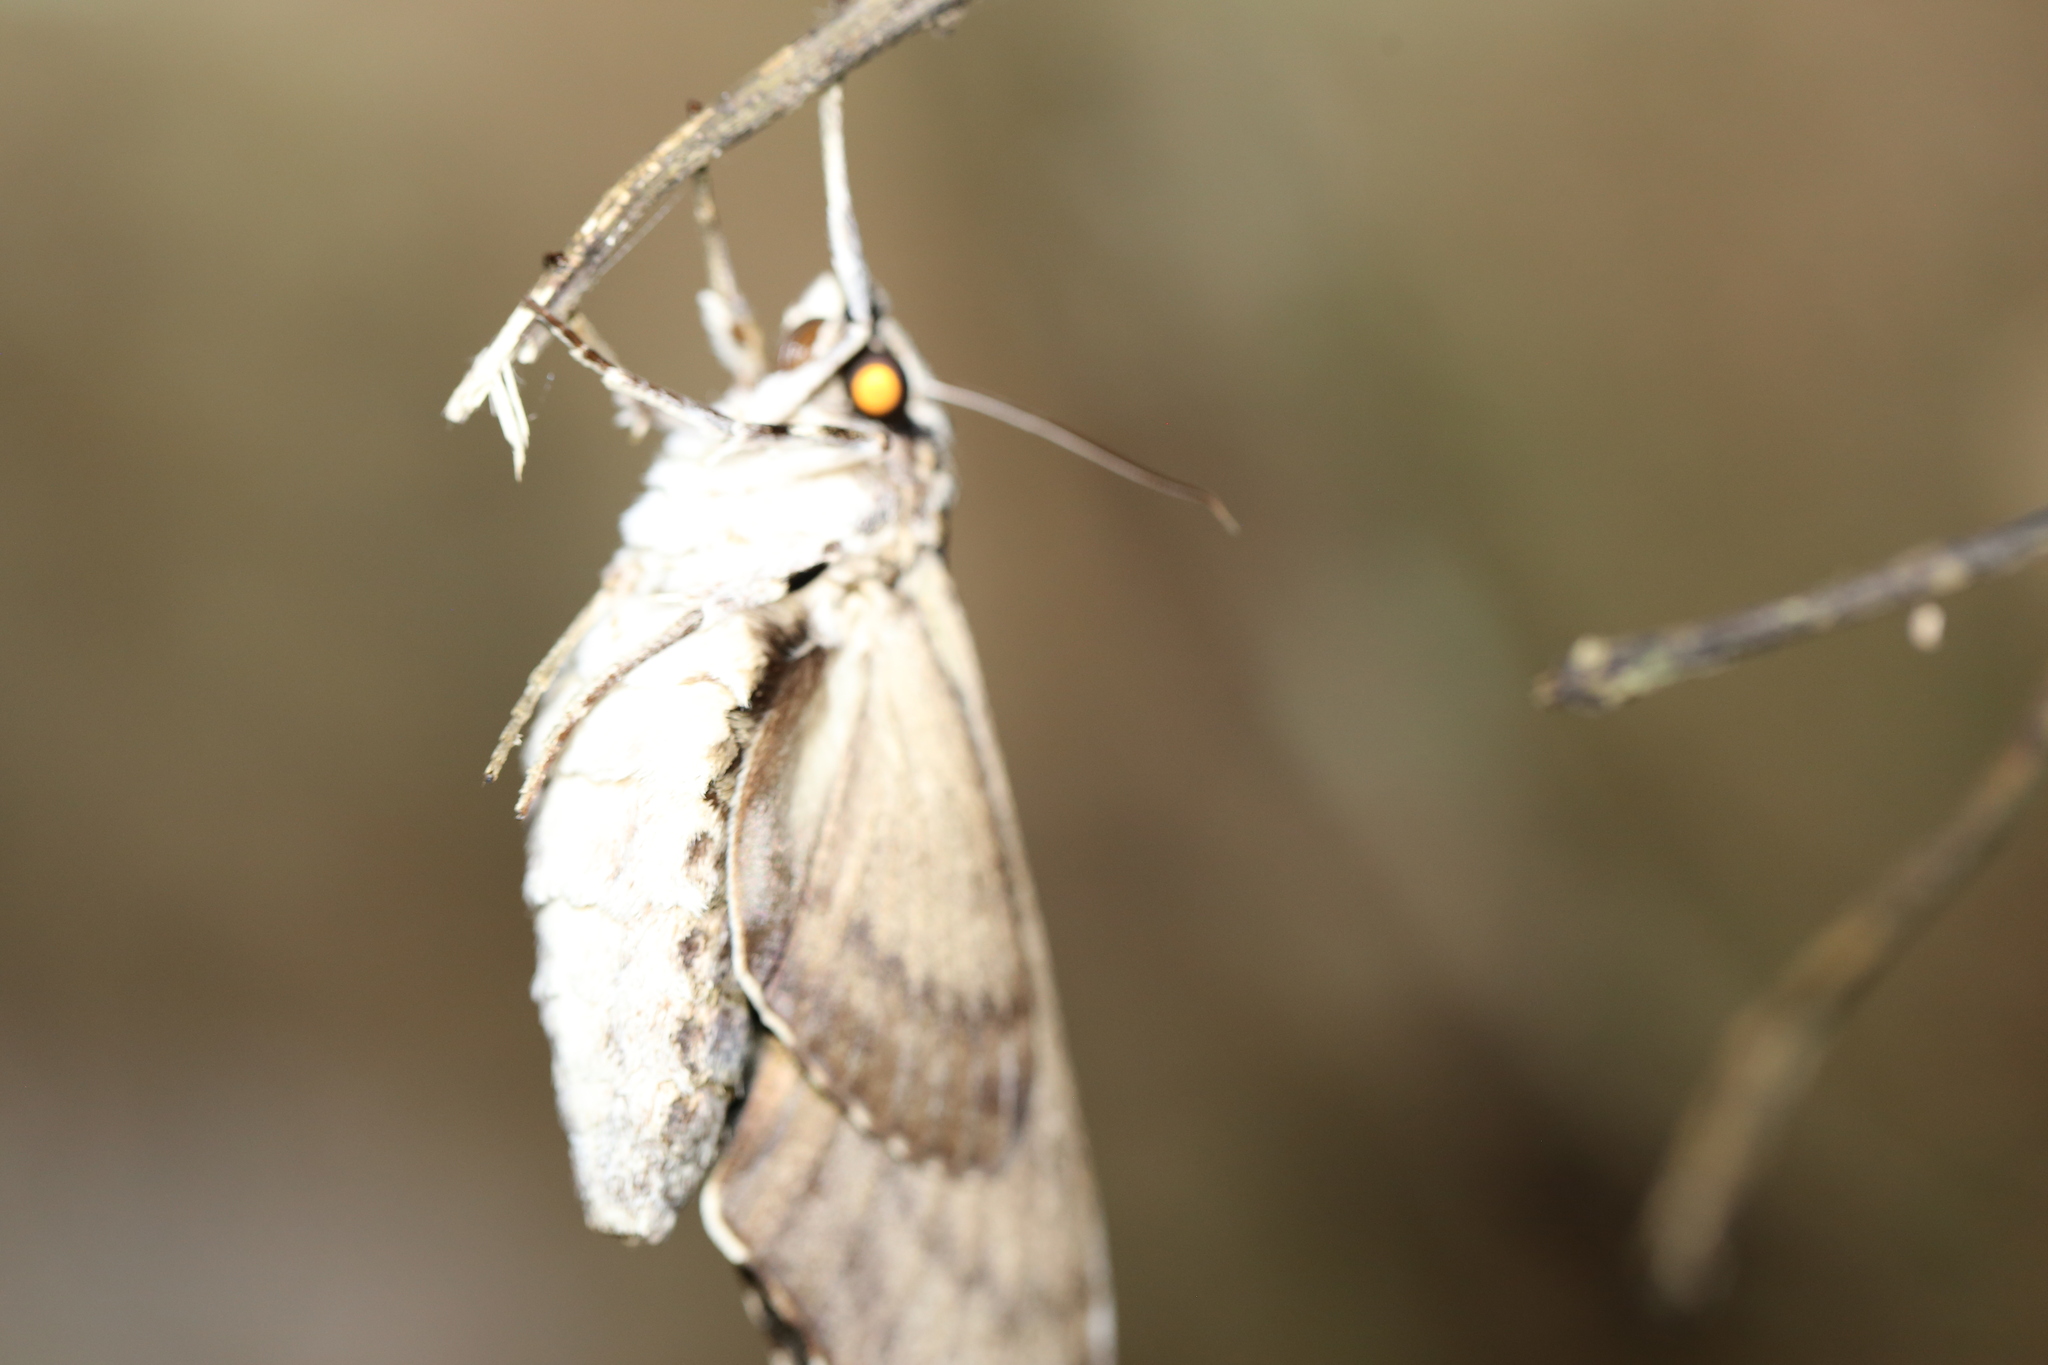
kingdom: Animalia
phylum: Arthropoda
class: Insecta
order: Lepidoptera
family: Sphingidae
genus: Psilogramma
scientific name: Psilogramma casuarinae
